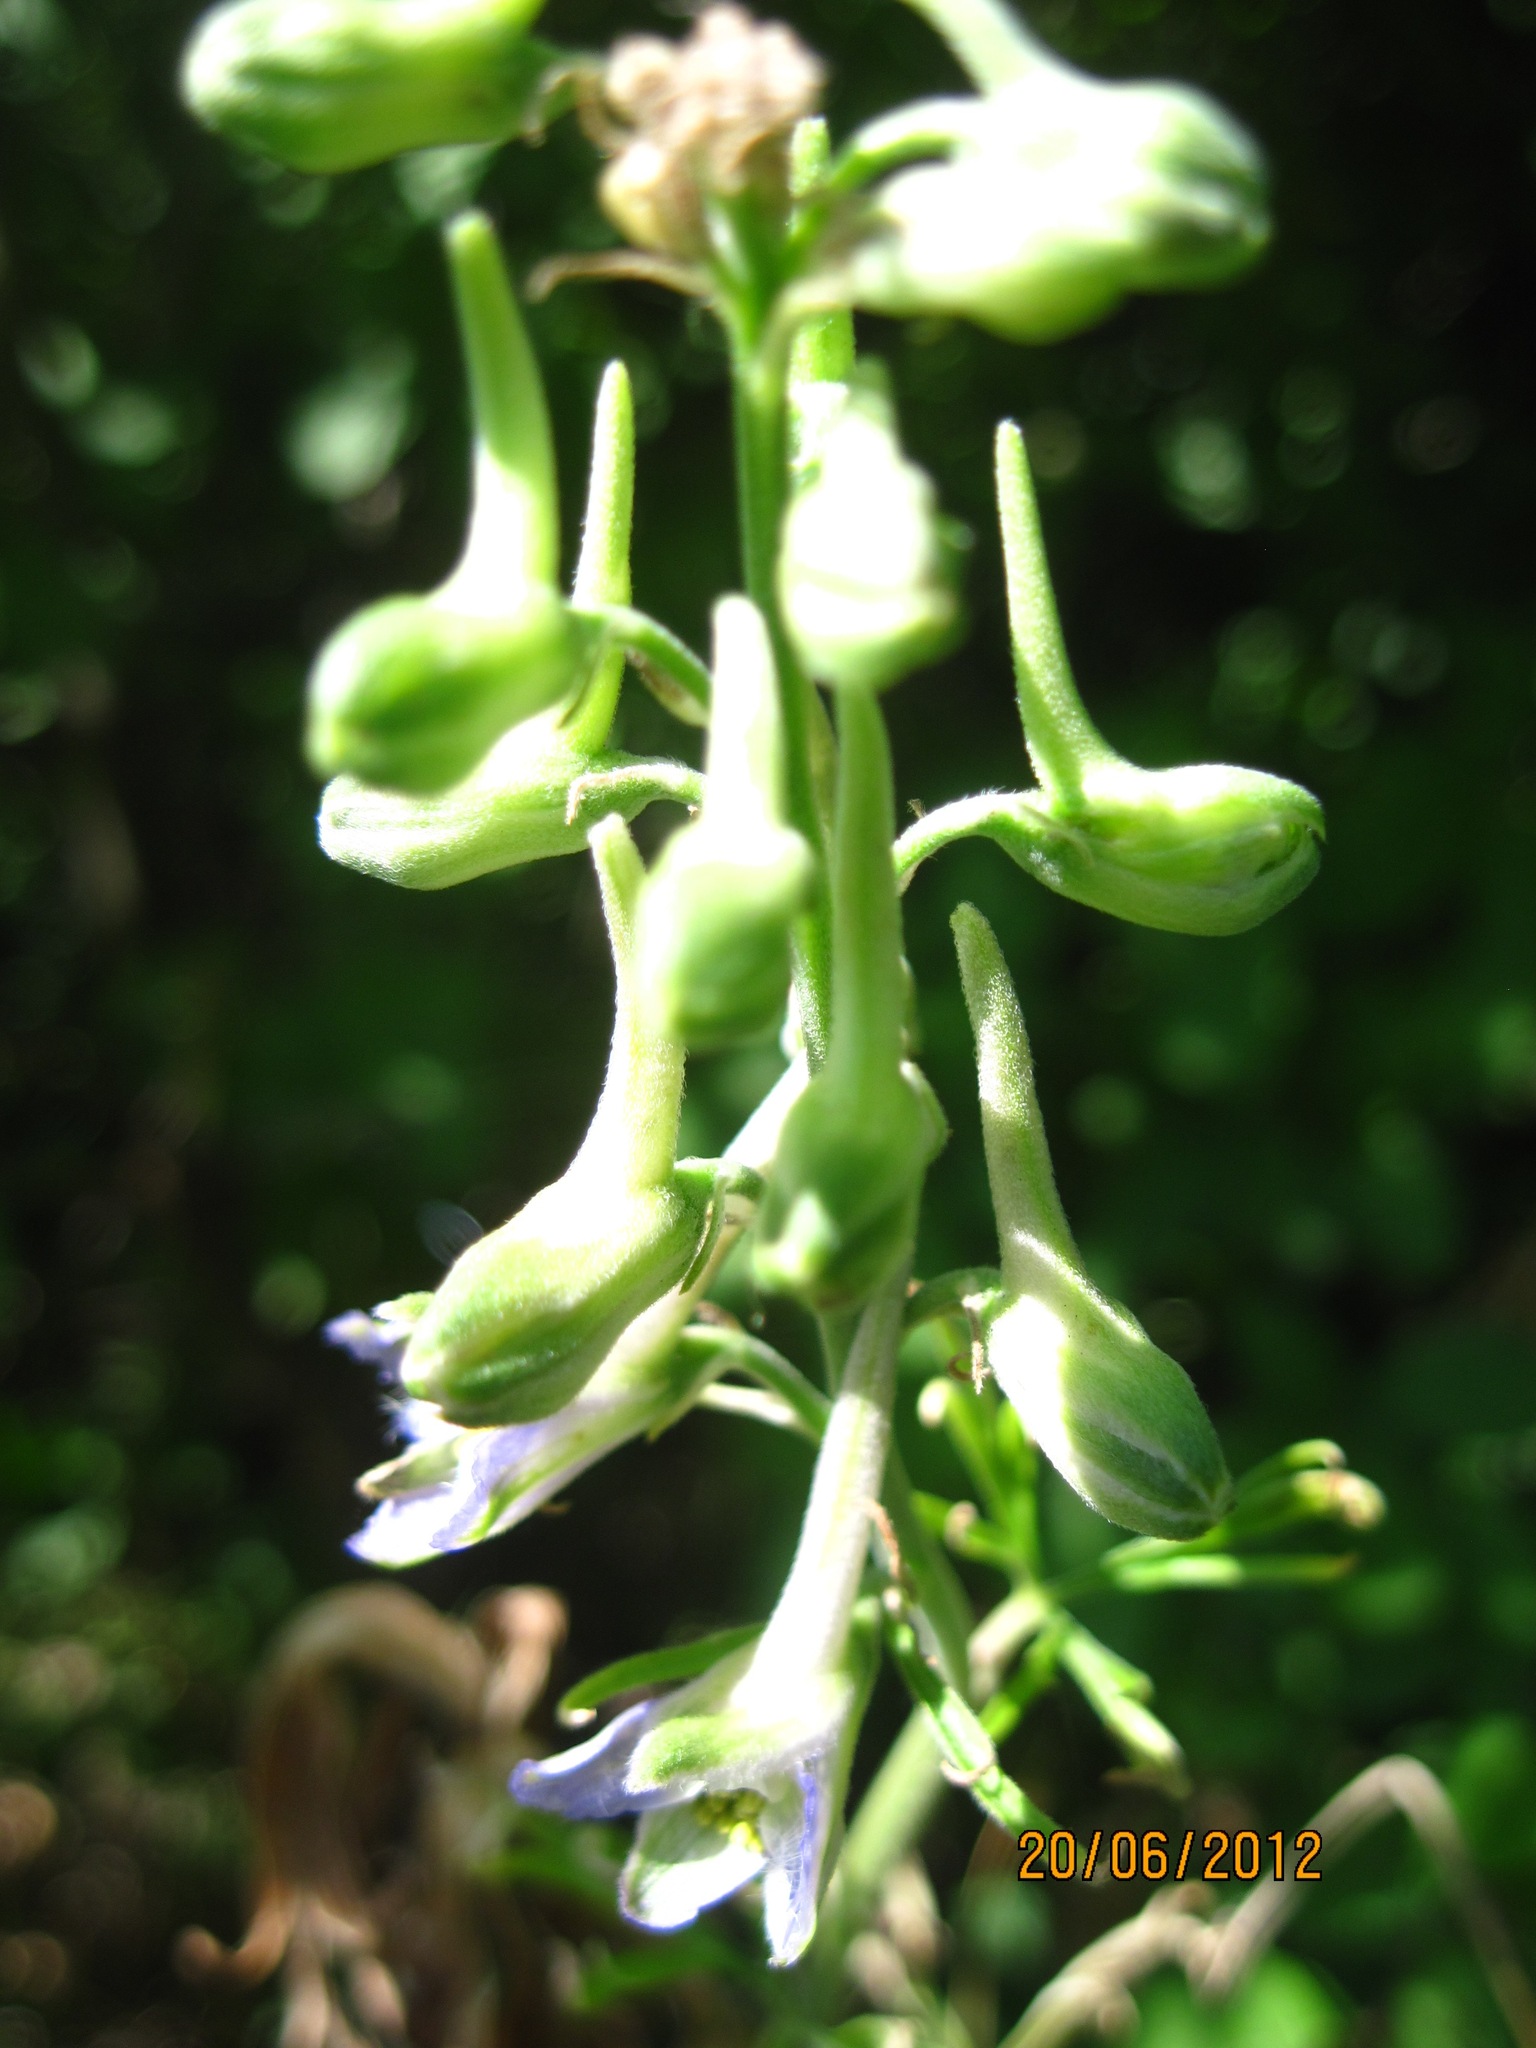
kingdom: Plantae
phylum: Tracheophyta
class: Magnoliopsida
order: Ranunculales
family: Ranunculaceae
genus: Delphinium
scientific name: Delphinium schmalhausenii
